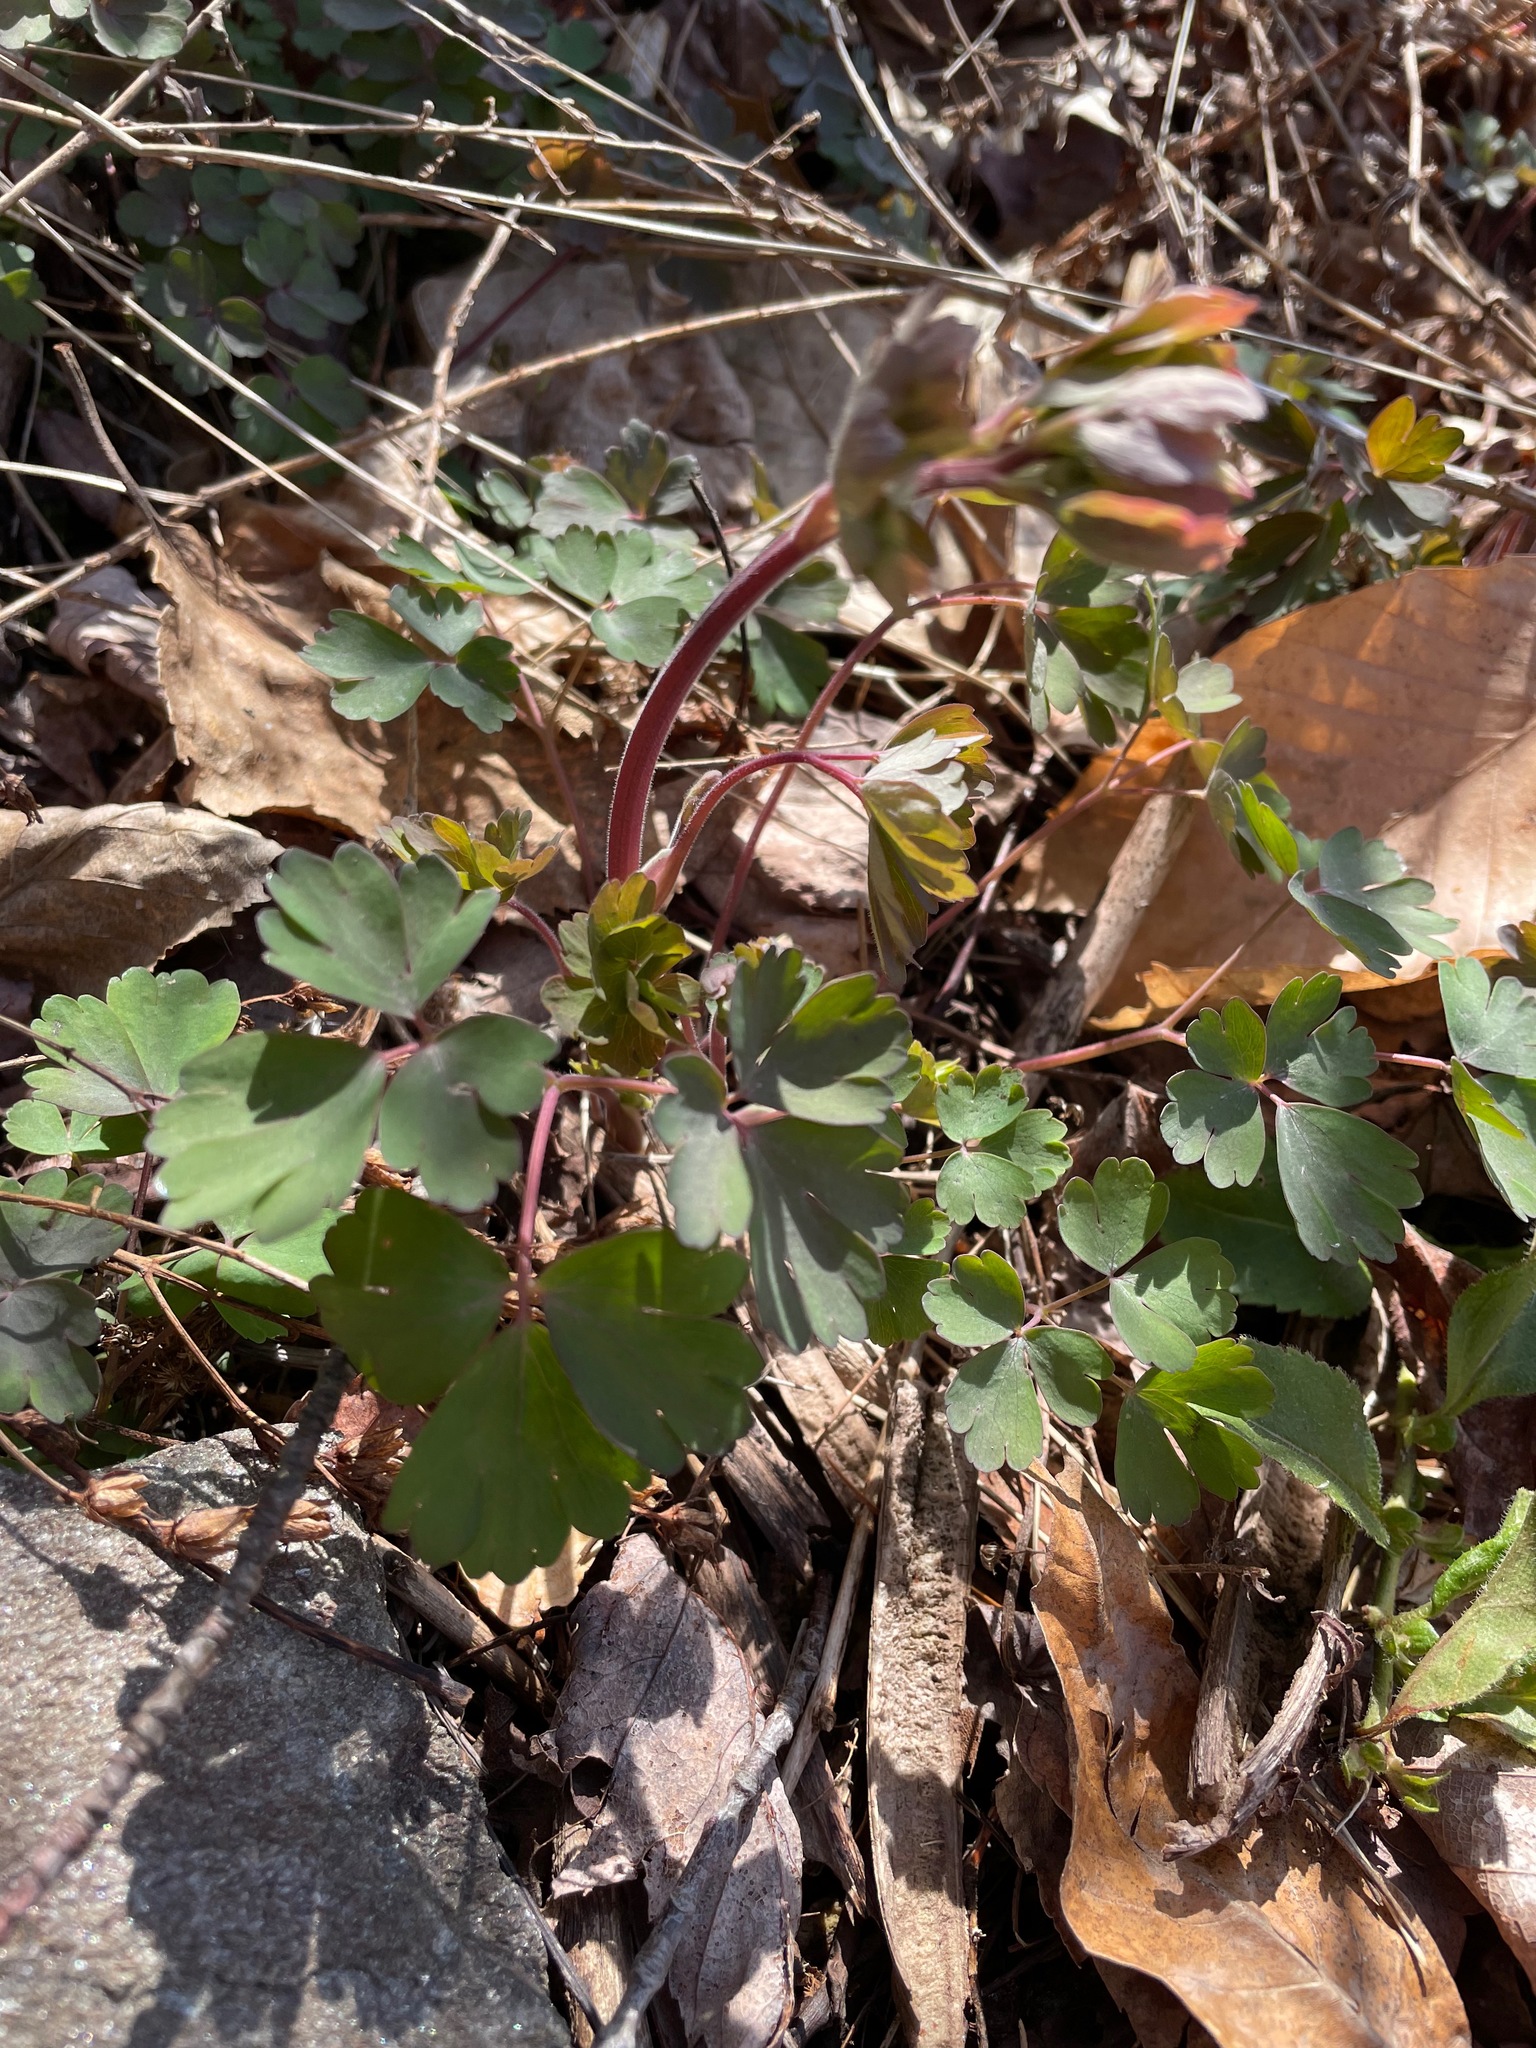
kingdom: Plantae
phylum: Tracheophyta
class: Magnoliopsida
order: Ranunculales
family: Ranunculaceae
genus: Aquilegia
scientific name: Aquilegia canadensis
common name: American columbine
